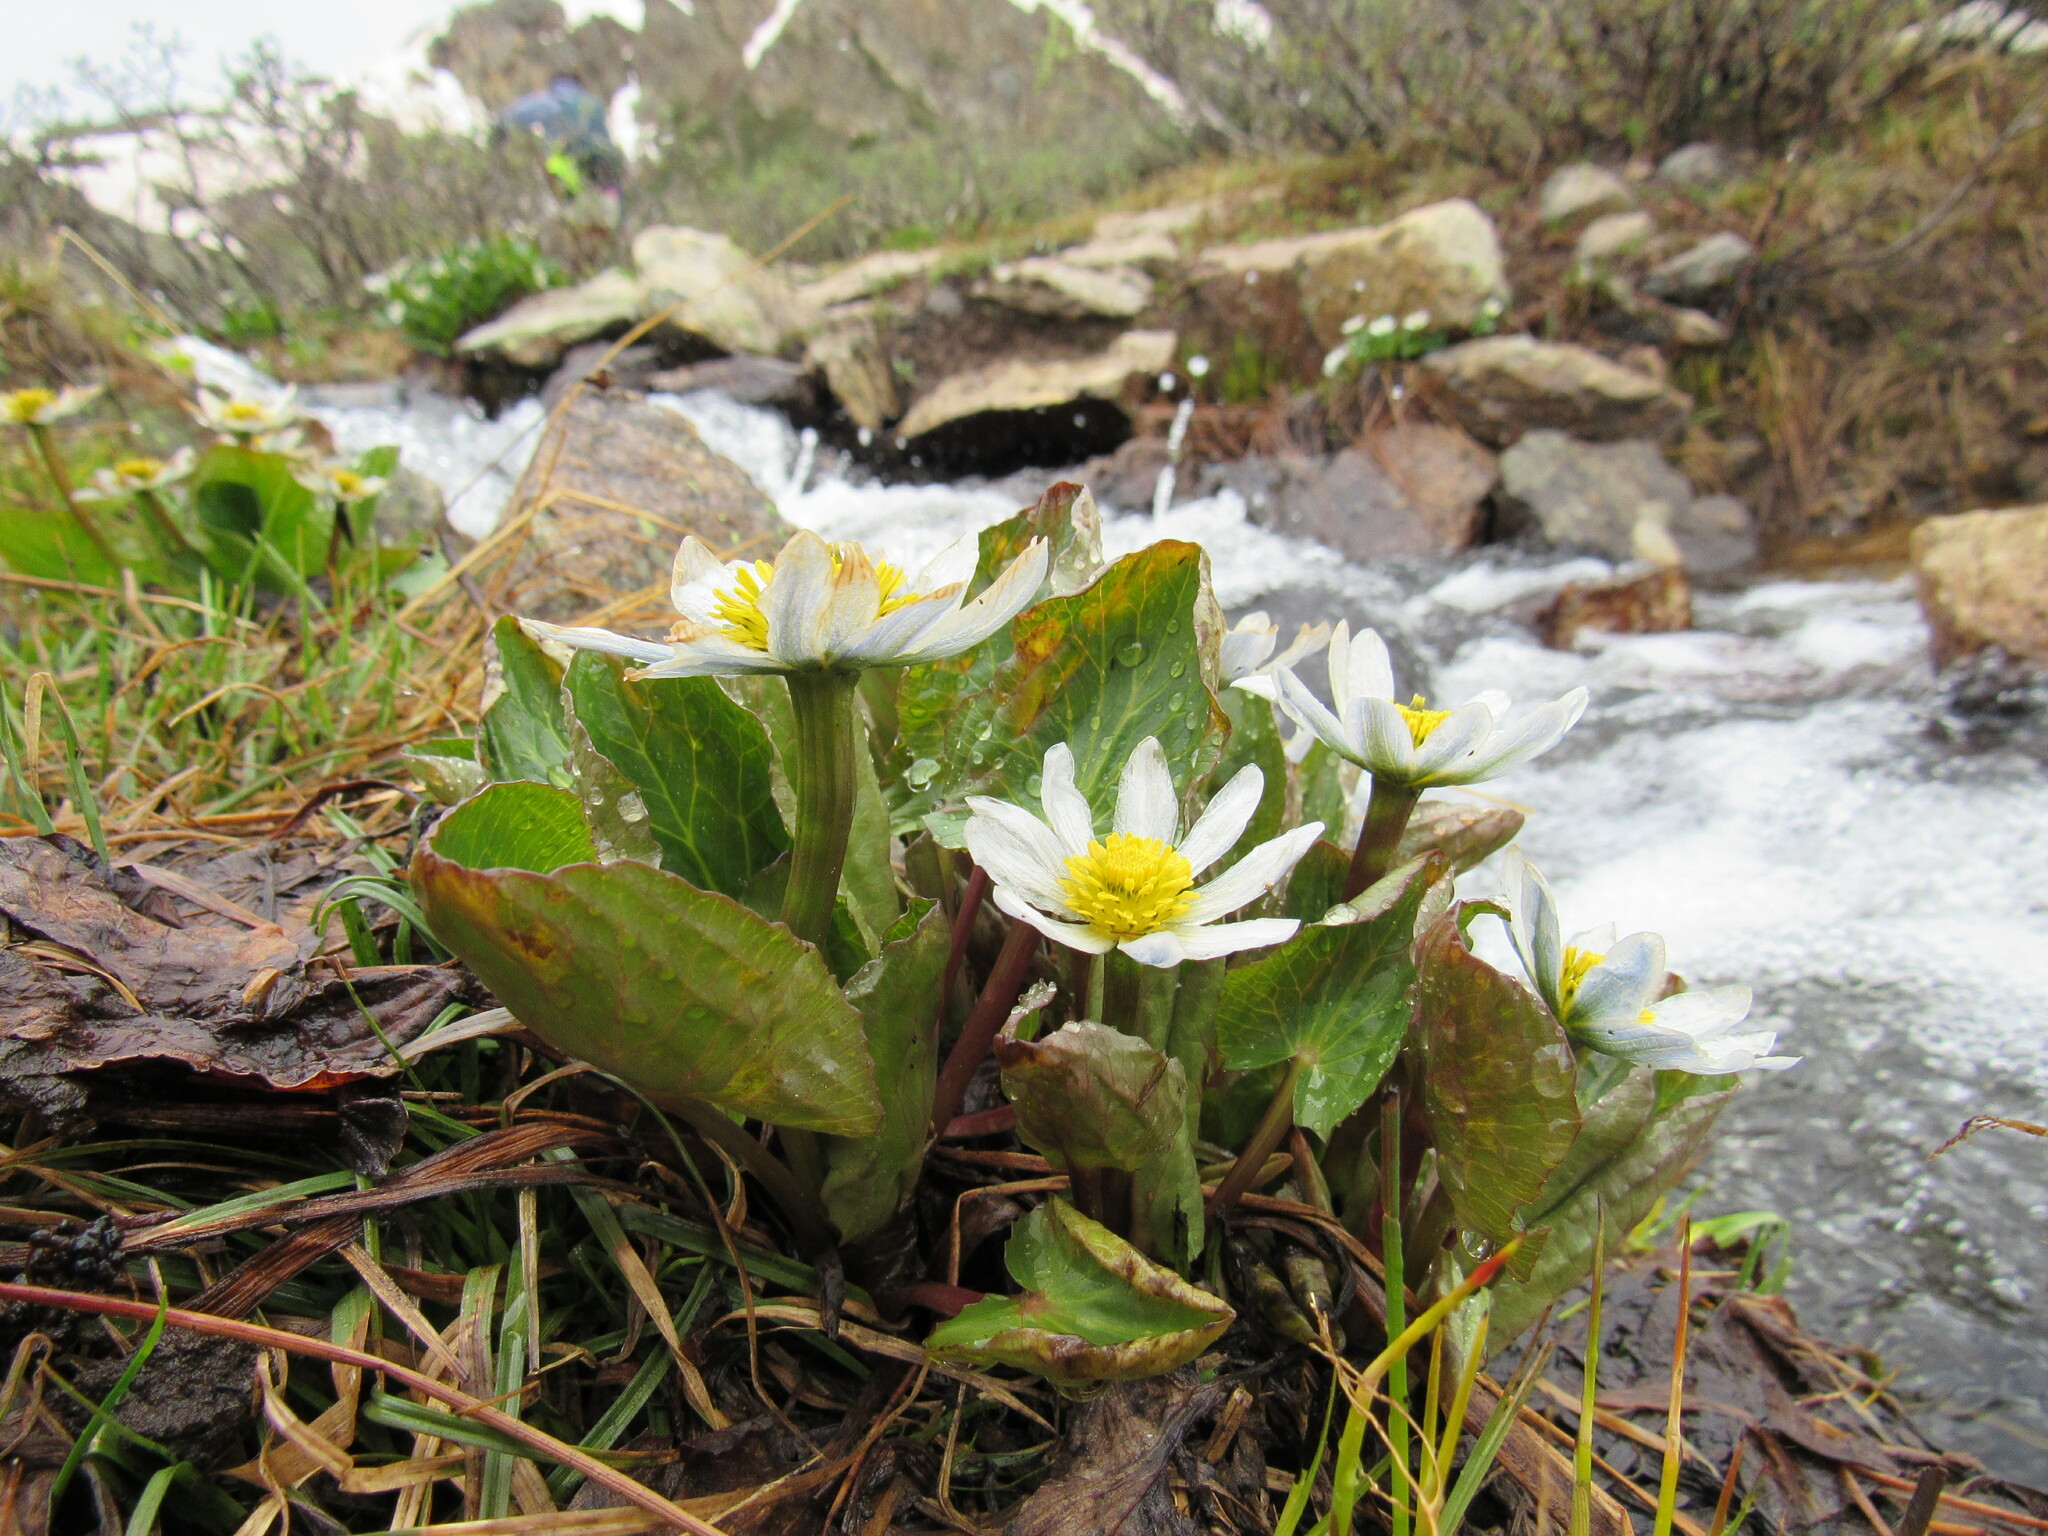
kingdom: Plantae
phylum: Tracheophyta
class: Magnoliopsida
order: Ranunculales
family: Ranunculaceae
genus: Caltha
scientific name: Caltha leptosepala
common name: Elkslip
